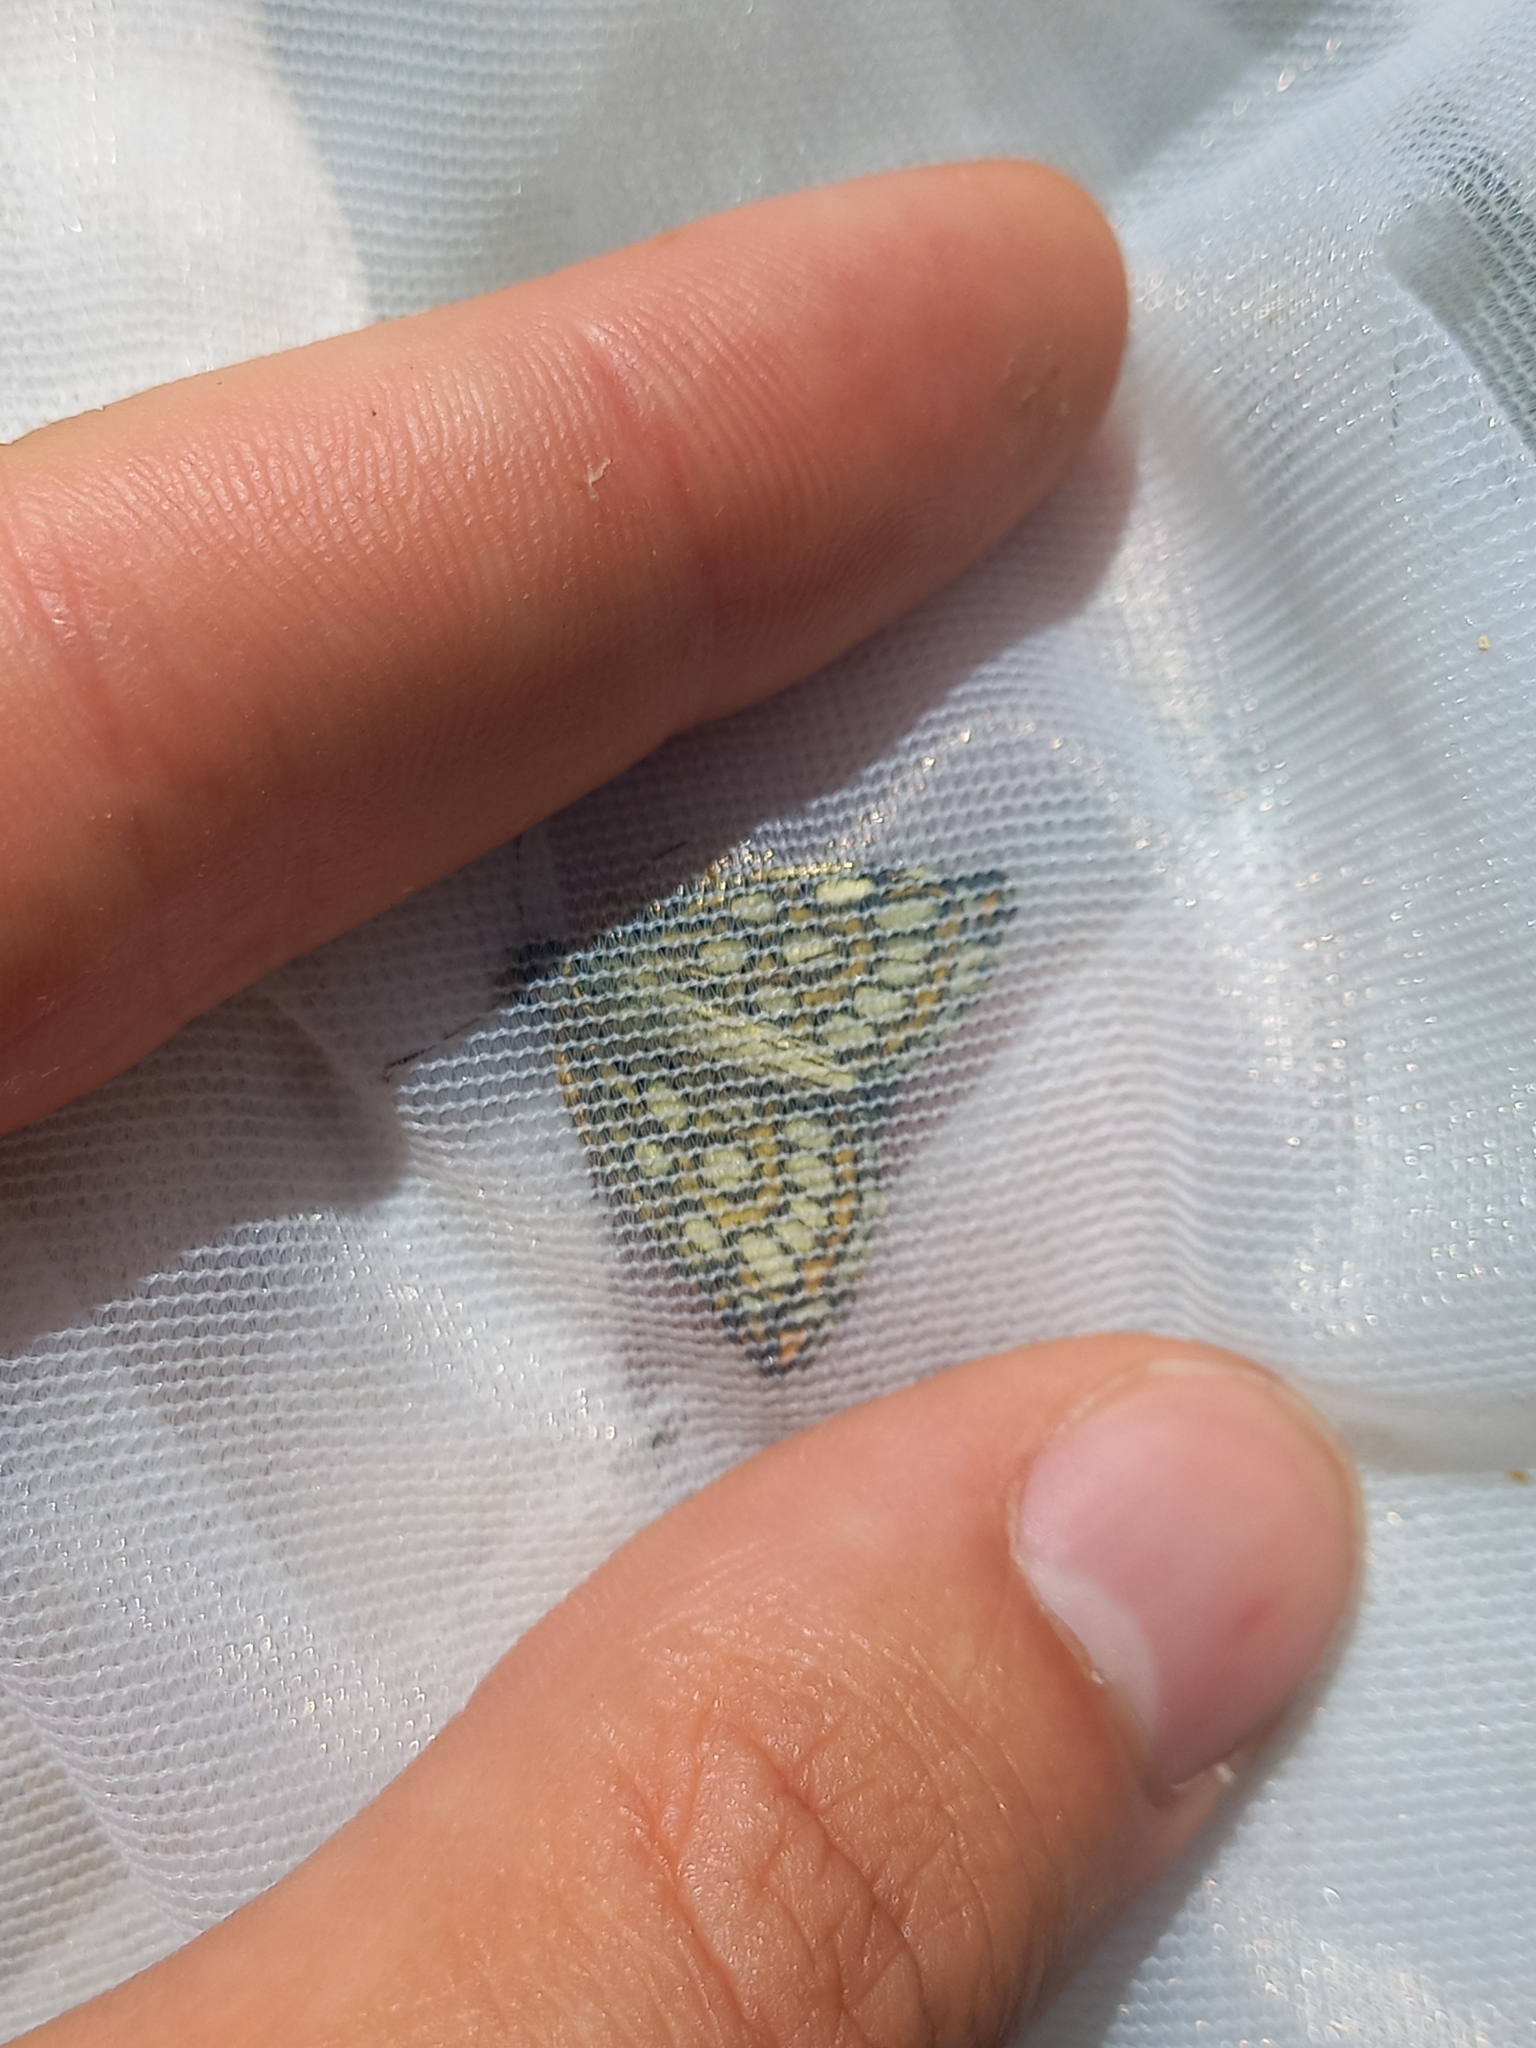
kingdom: Animalia
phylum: Arthropoda
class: Insecta
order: Lepidoptera
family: Hesperiidae
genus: Heteropterus
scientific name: Heteropterus morpheus
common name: Large chequered skipper
